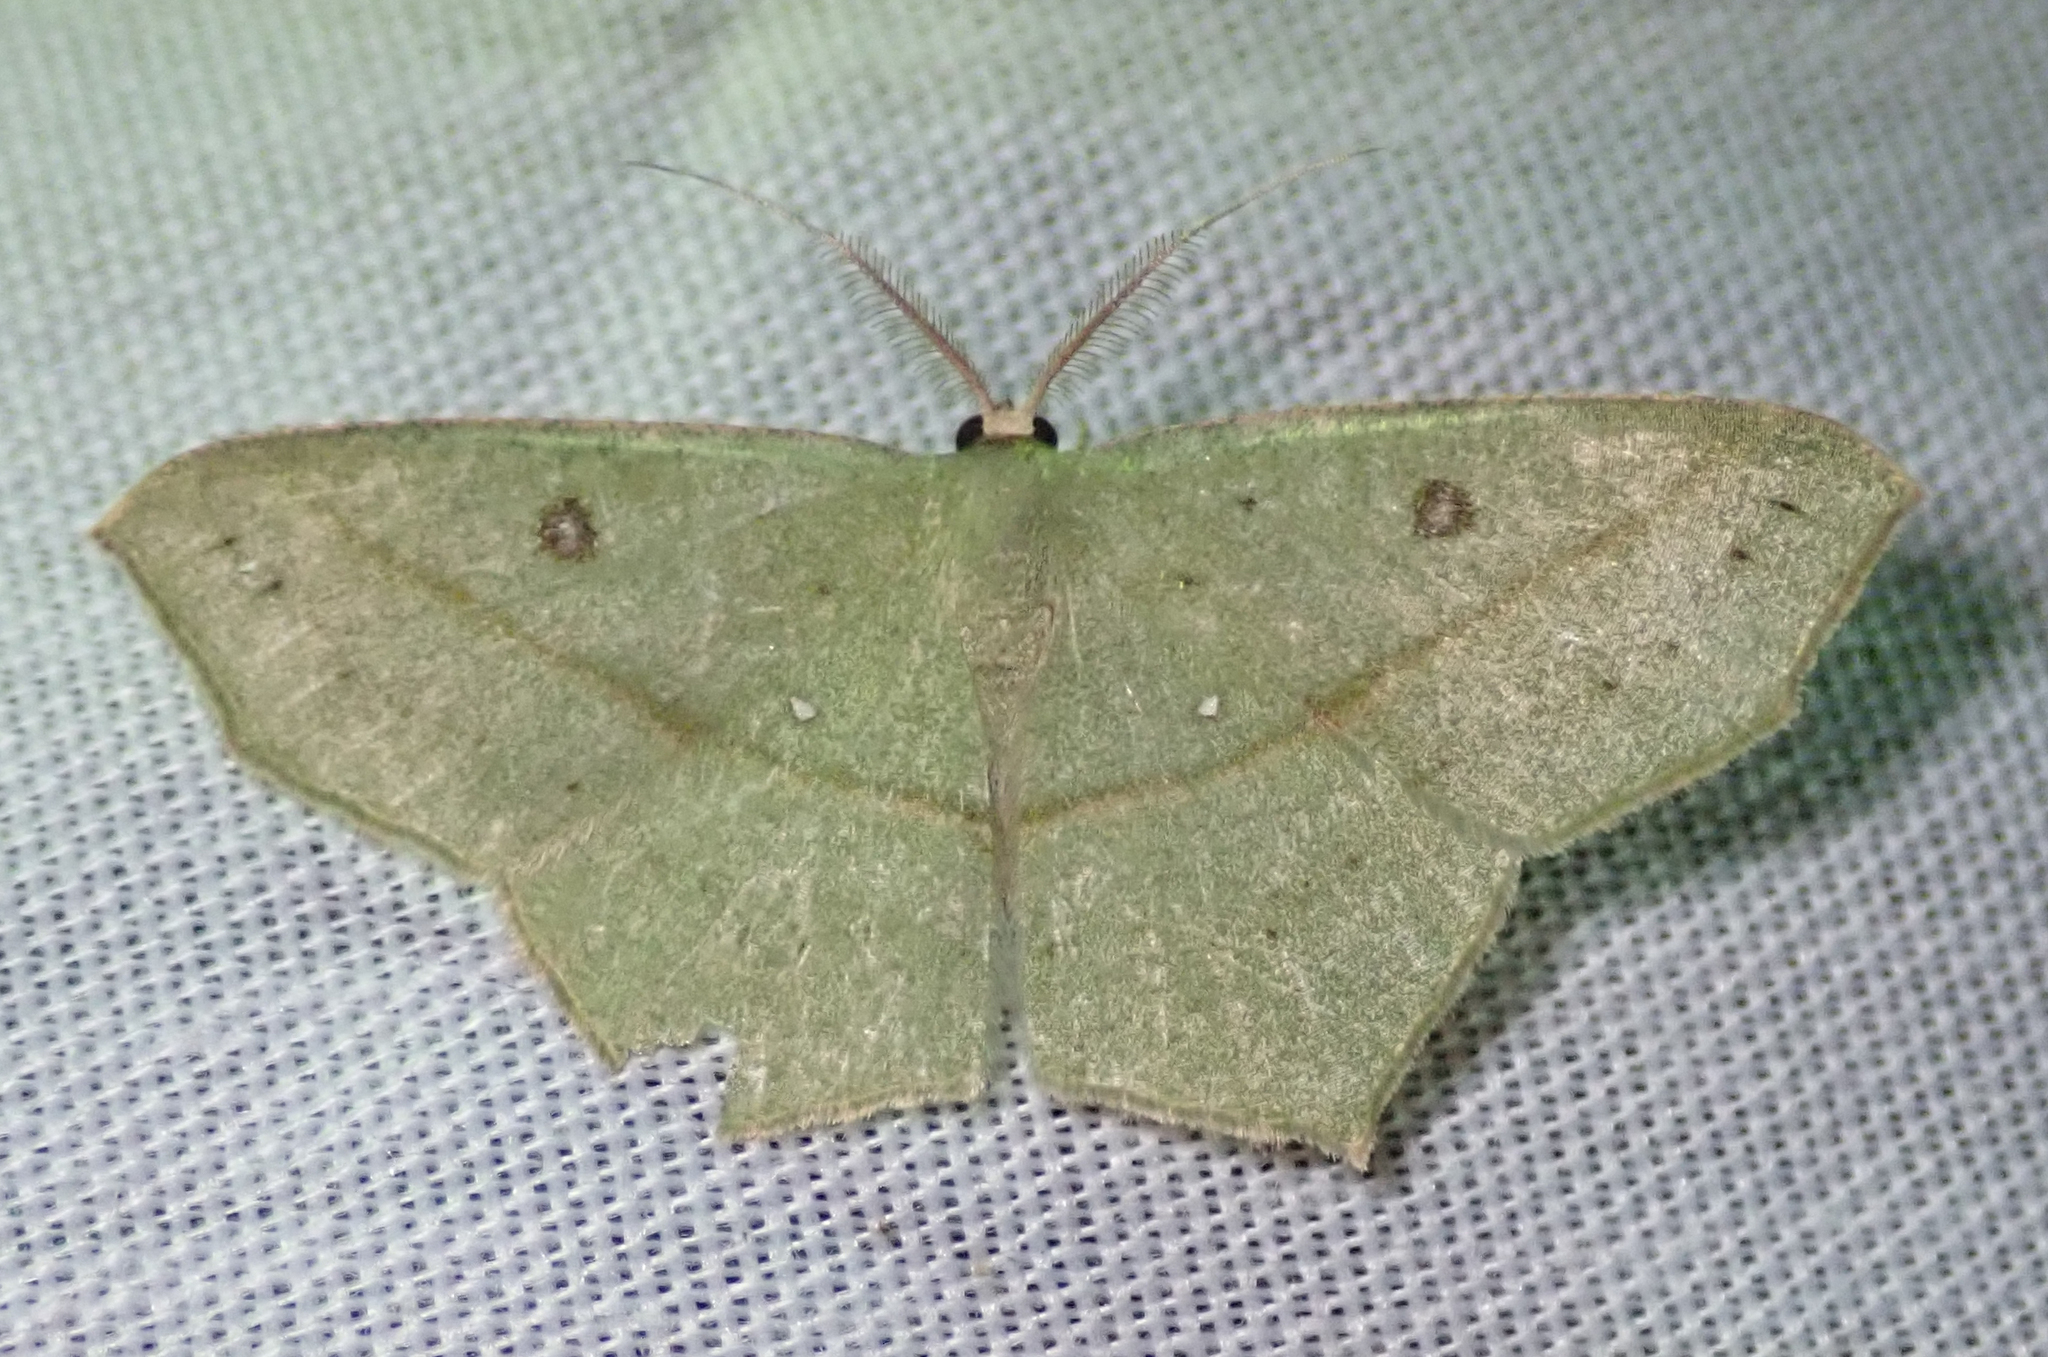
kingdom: Animalia
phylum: Arthropoda
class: Insecta
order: Lepidoptera
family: Geometridae
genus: Traminda
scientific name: Traminda neptunaria
